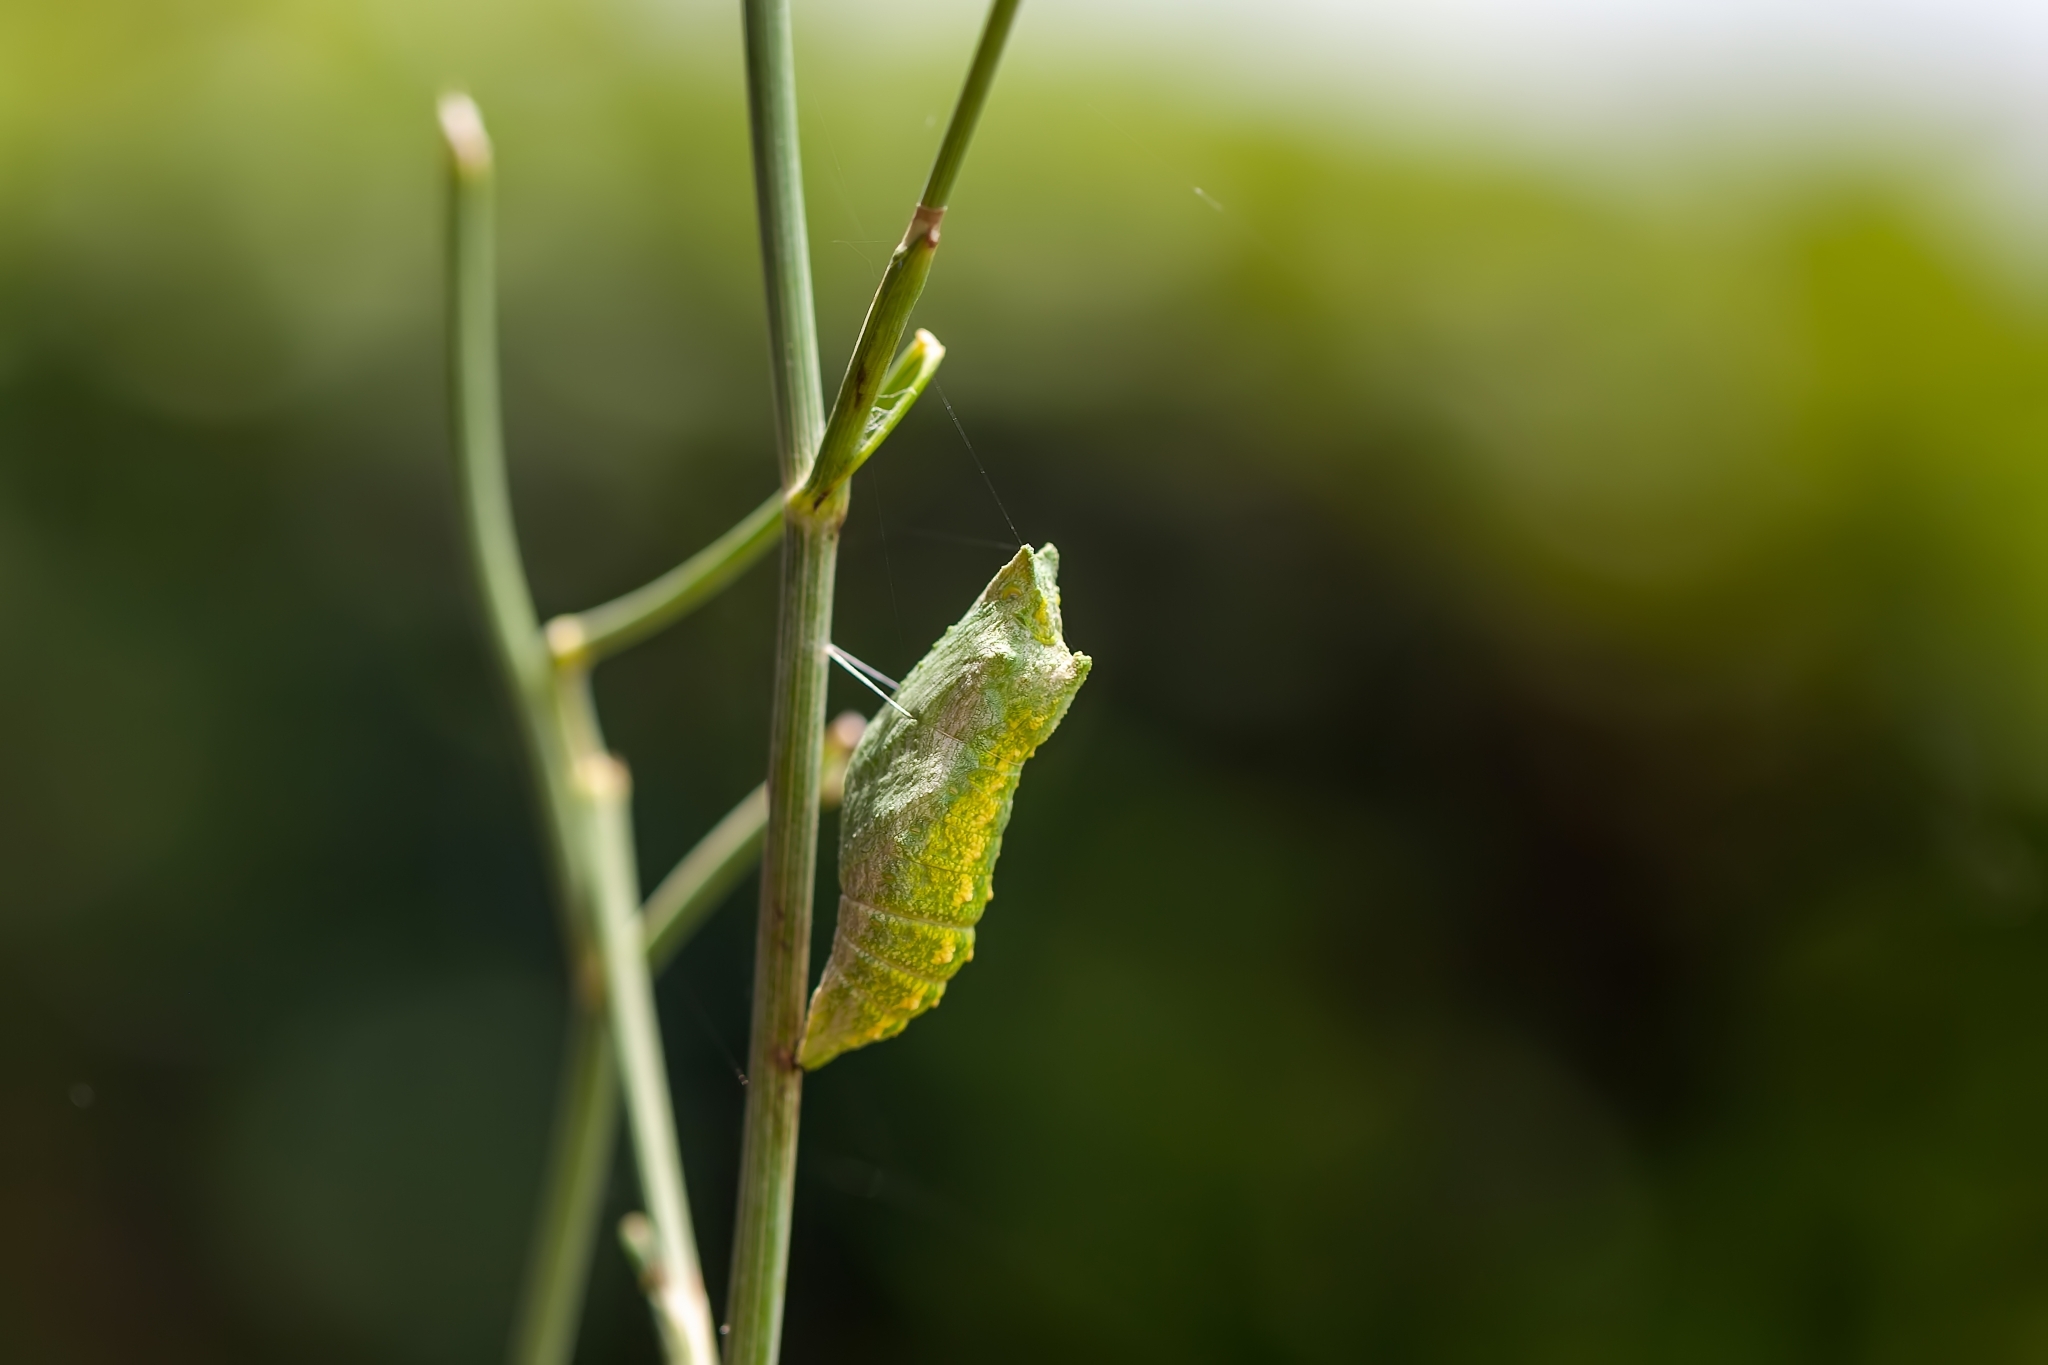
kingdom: Animalia
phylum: Arthropoda
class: Insecta
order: Lepidoptera
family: Papilionidae
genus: Papilio
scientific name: Papilio polyxenes
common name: Black swallowtail
